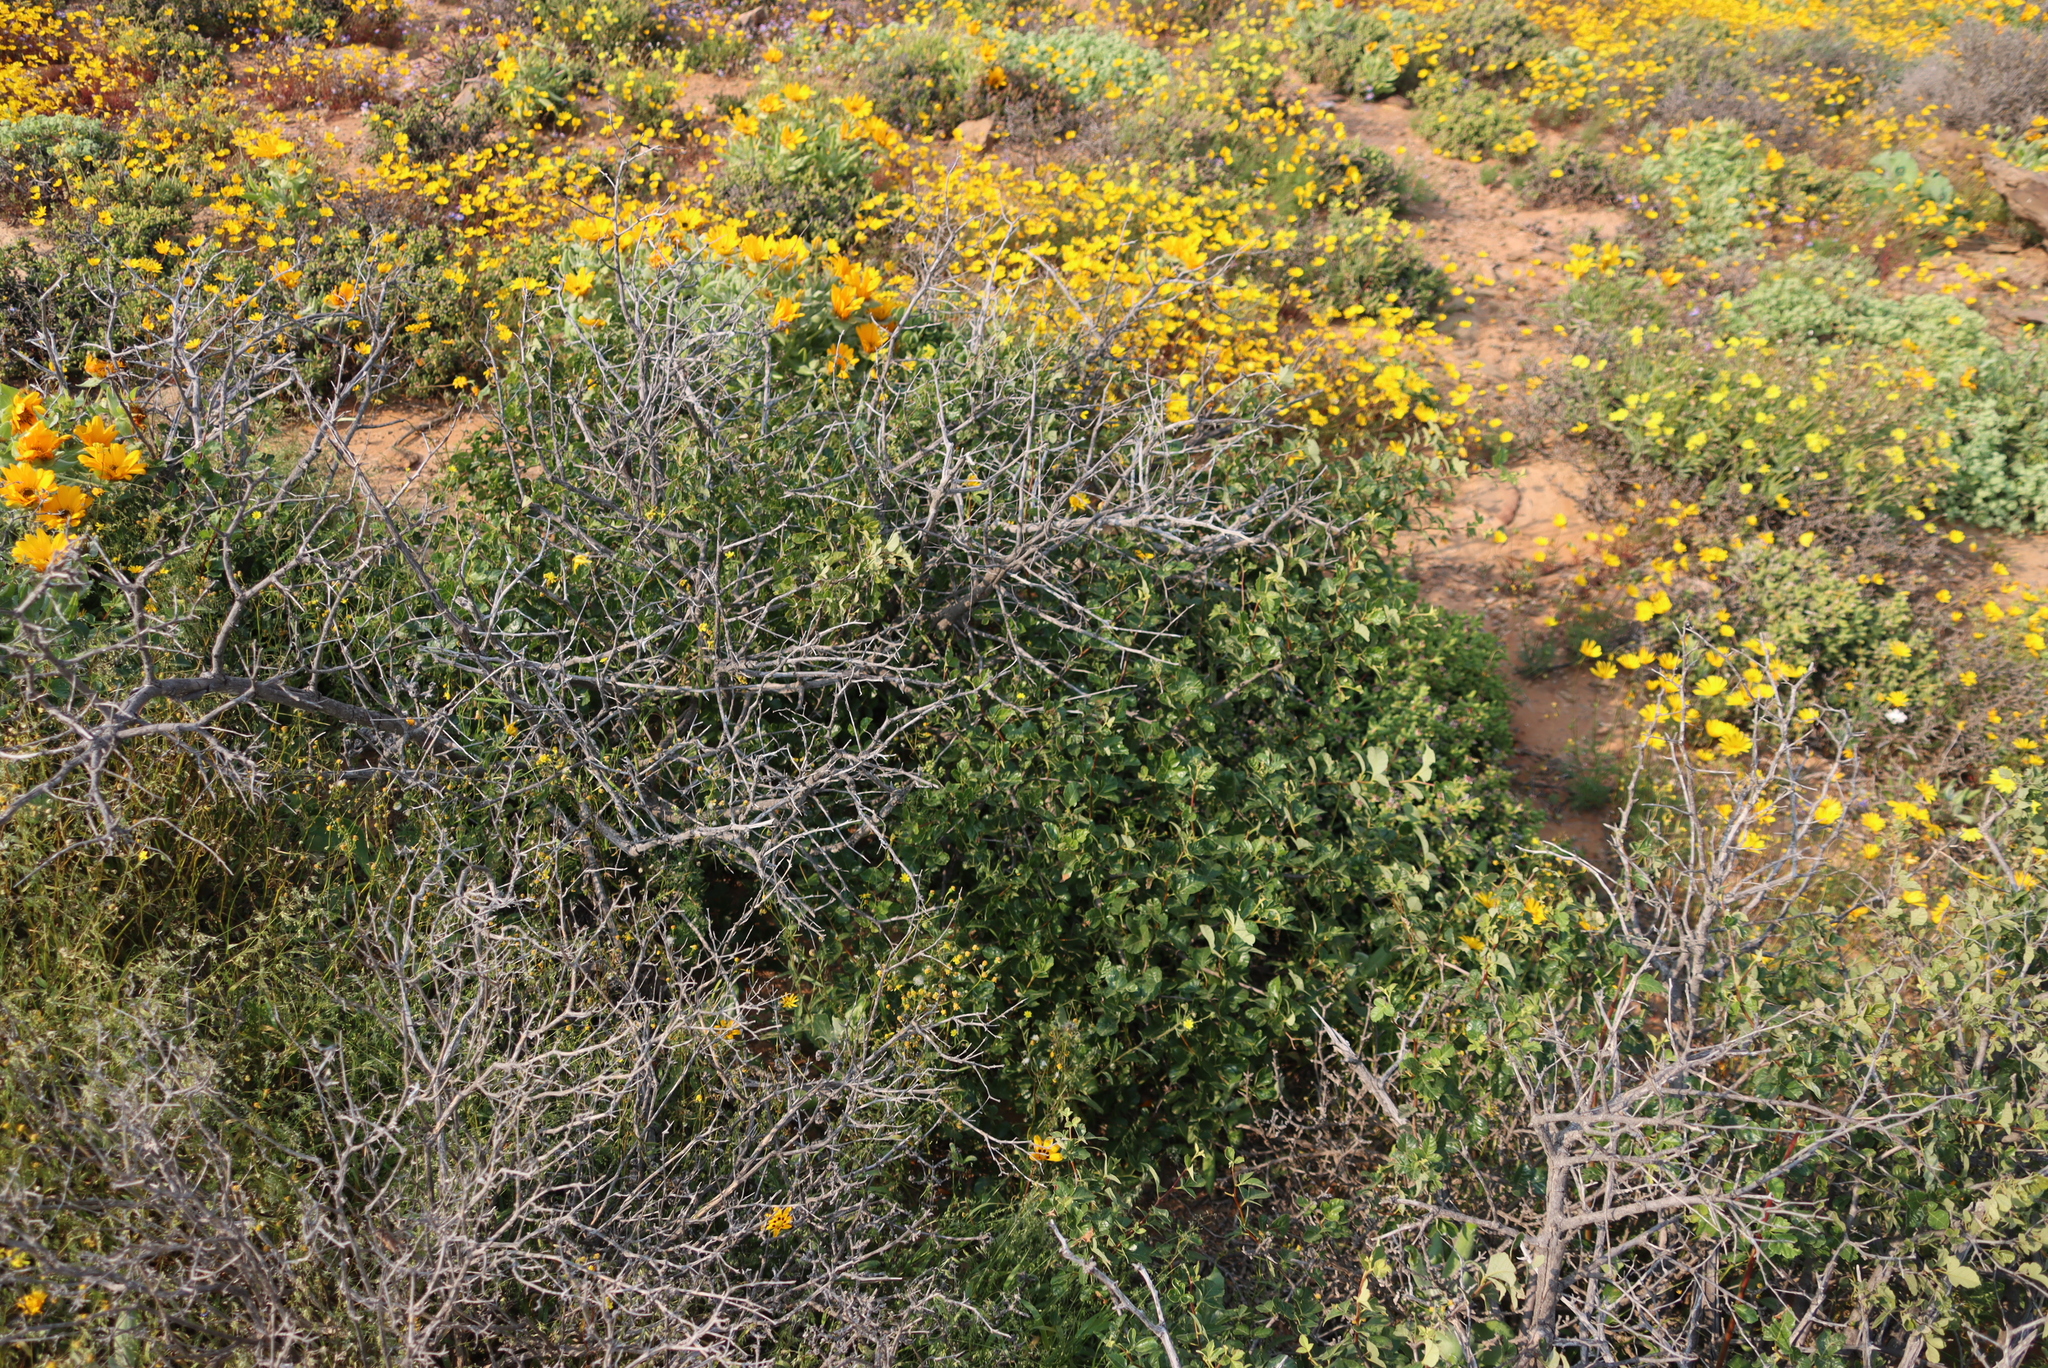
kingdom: Plantae
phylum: Tracheophyta
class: Magnoliopsida
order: Sapindales
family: Anacardiaceae
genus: Searsia
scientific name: Searsia populifolia
